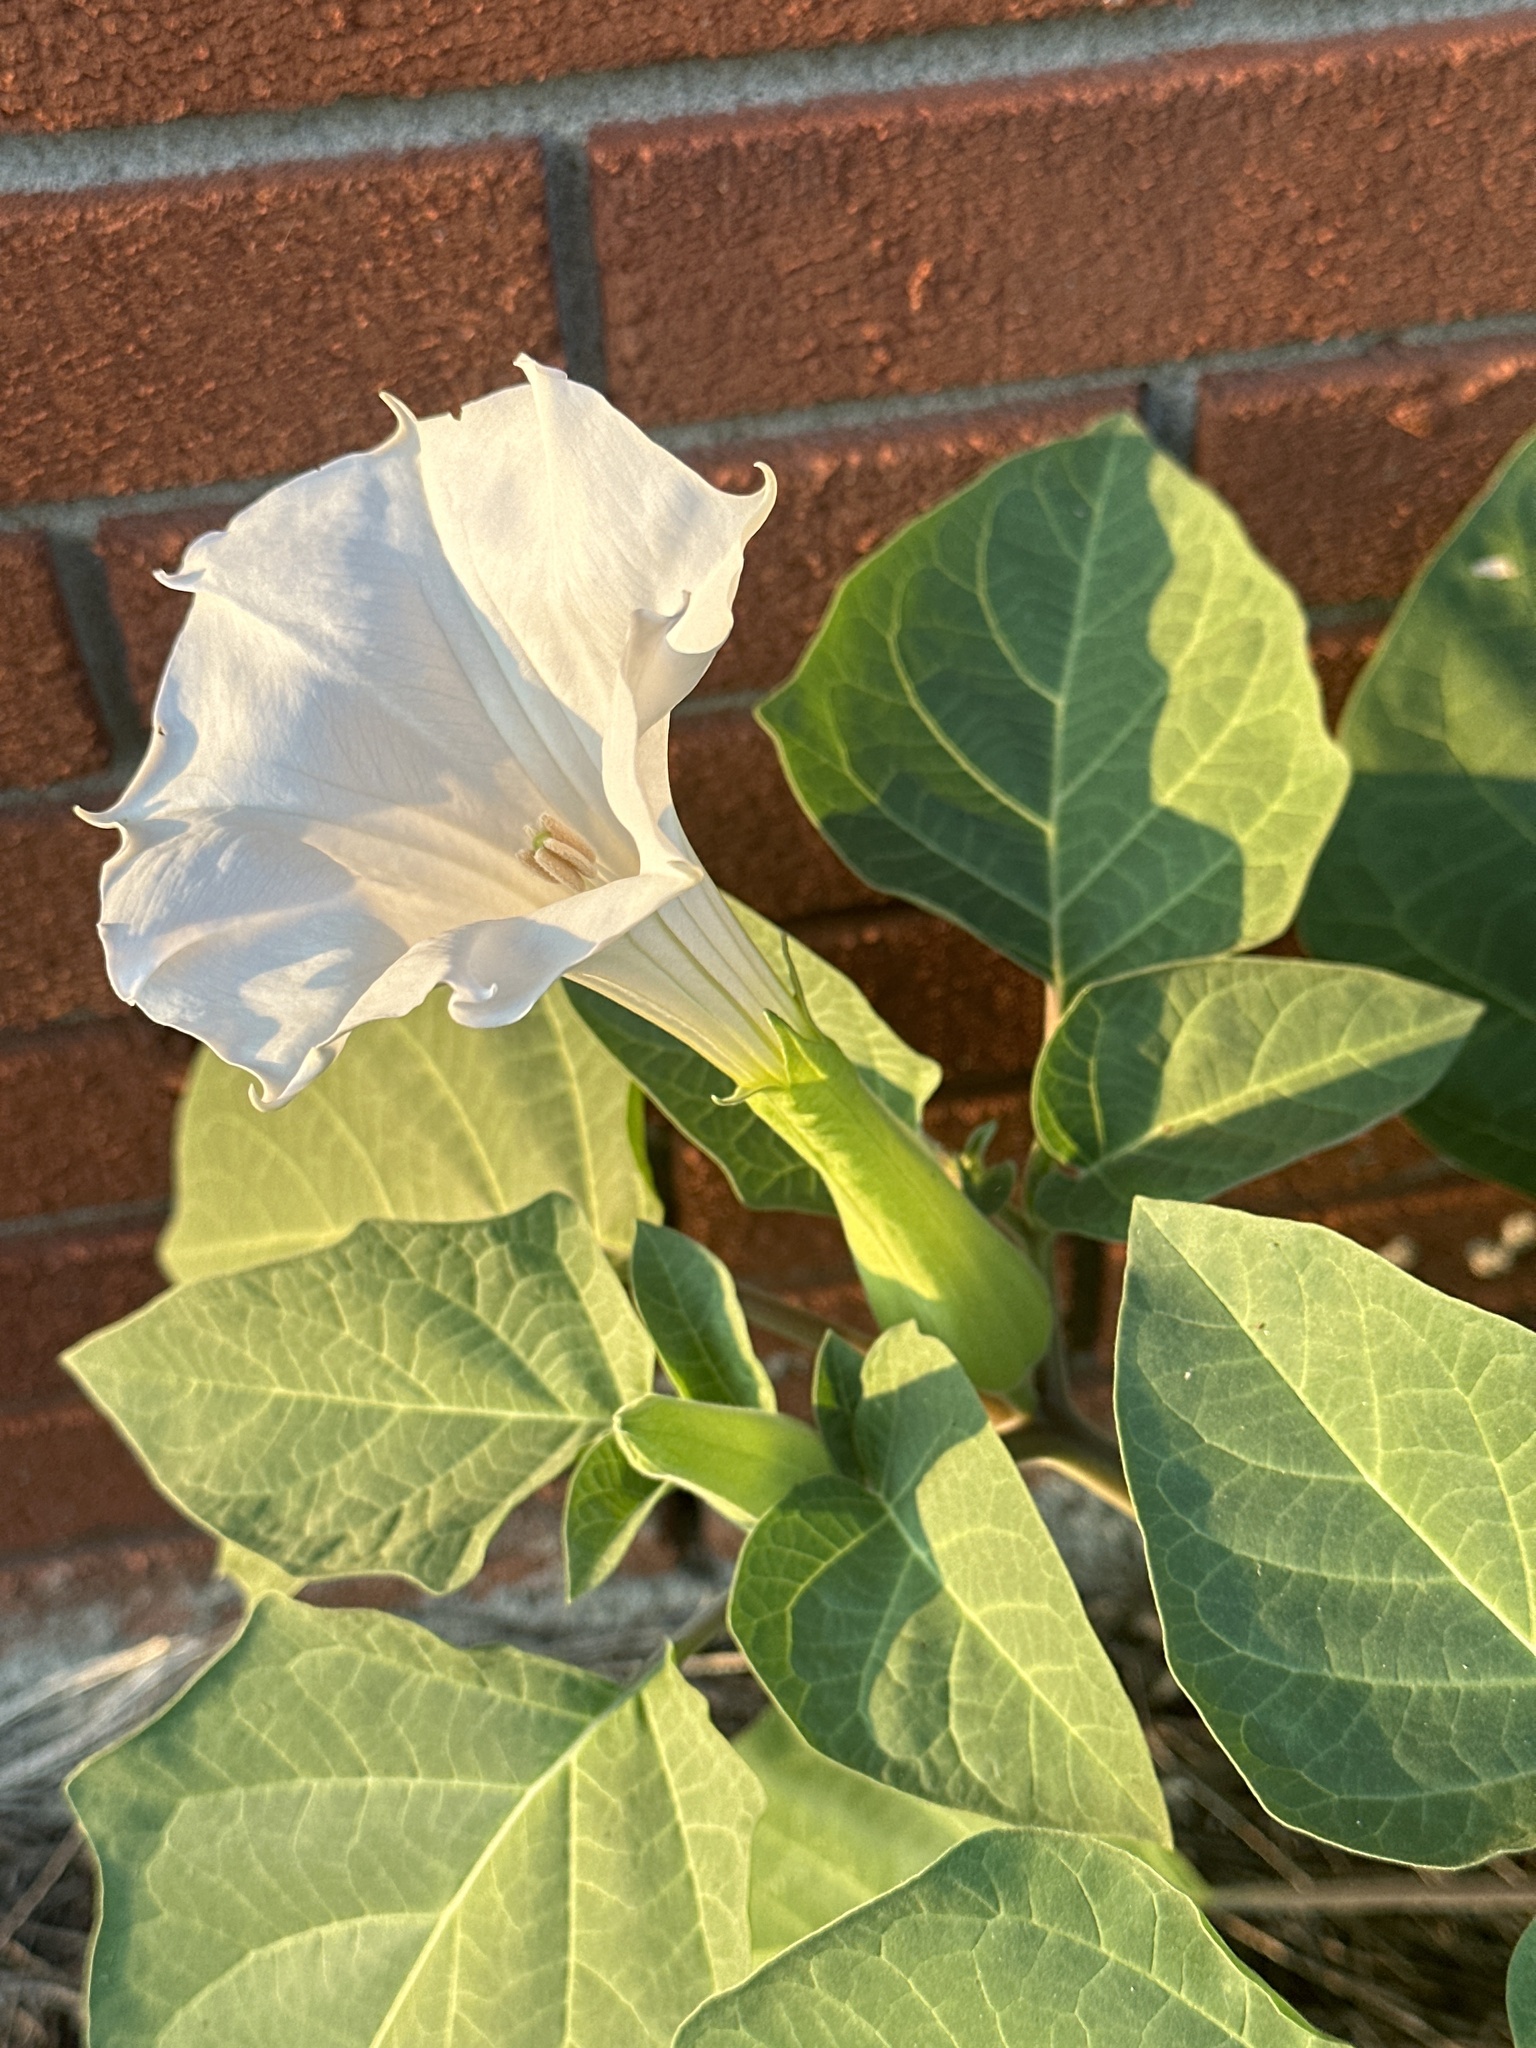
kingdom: Plantae
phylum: Tracheophyta
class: Magnoliopsida
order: Solanales
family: Solanaceae
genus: Datura
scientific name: Datura wrightii
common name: Sacred thorn-apple
